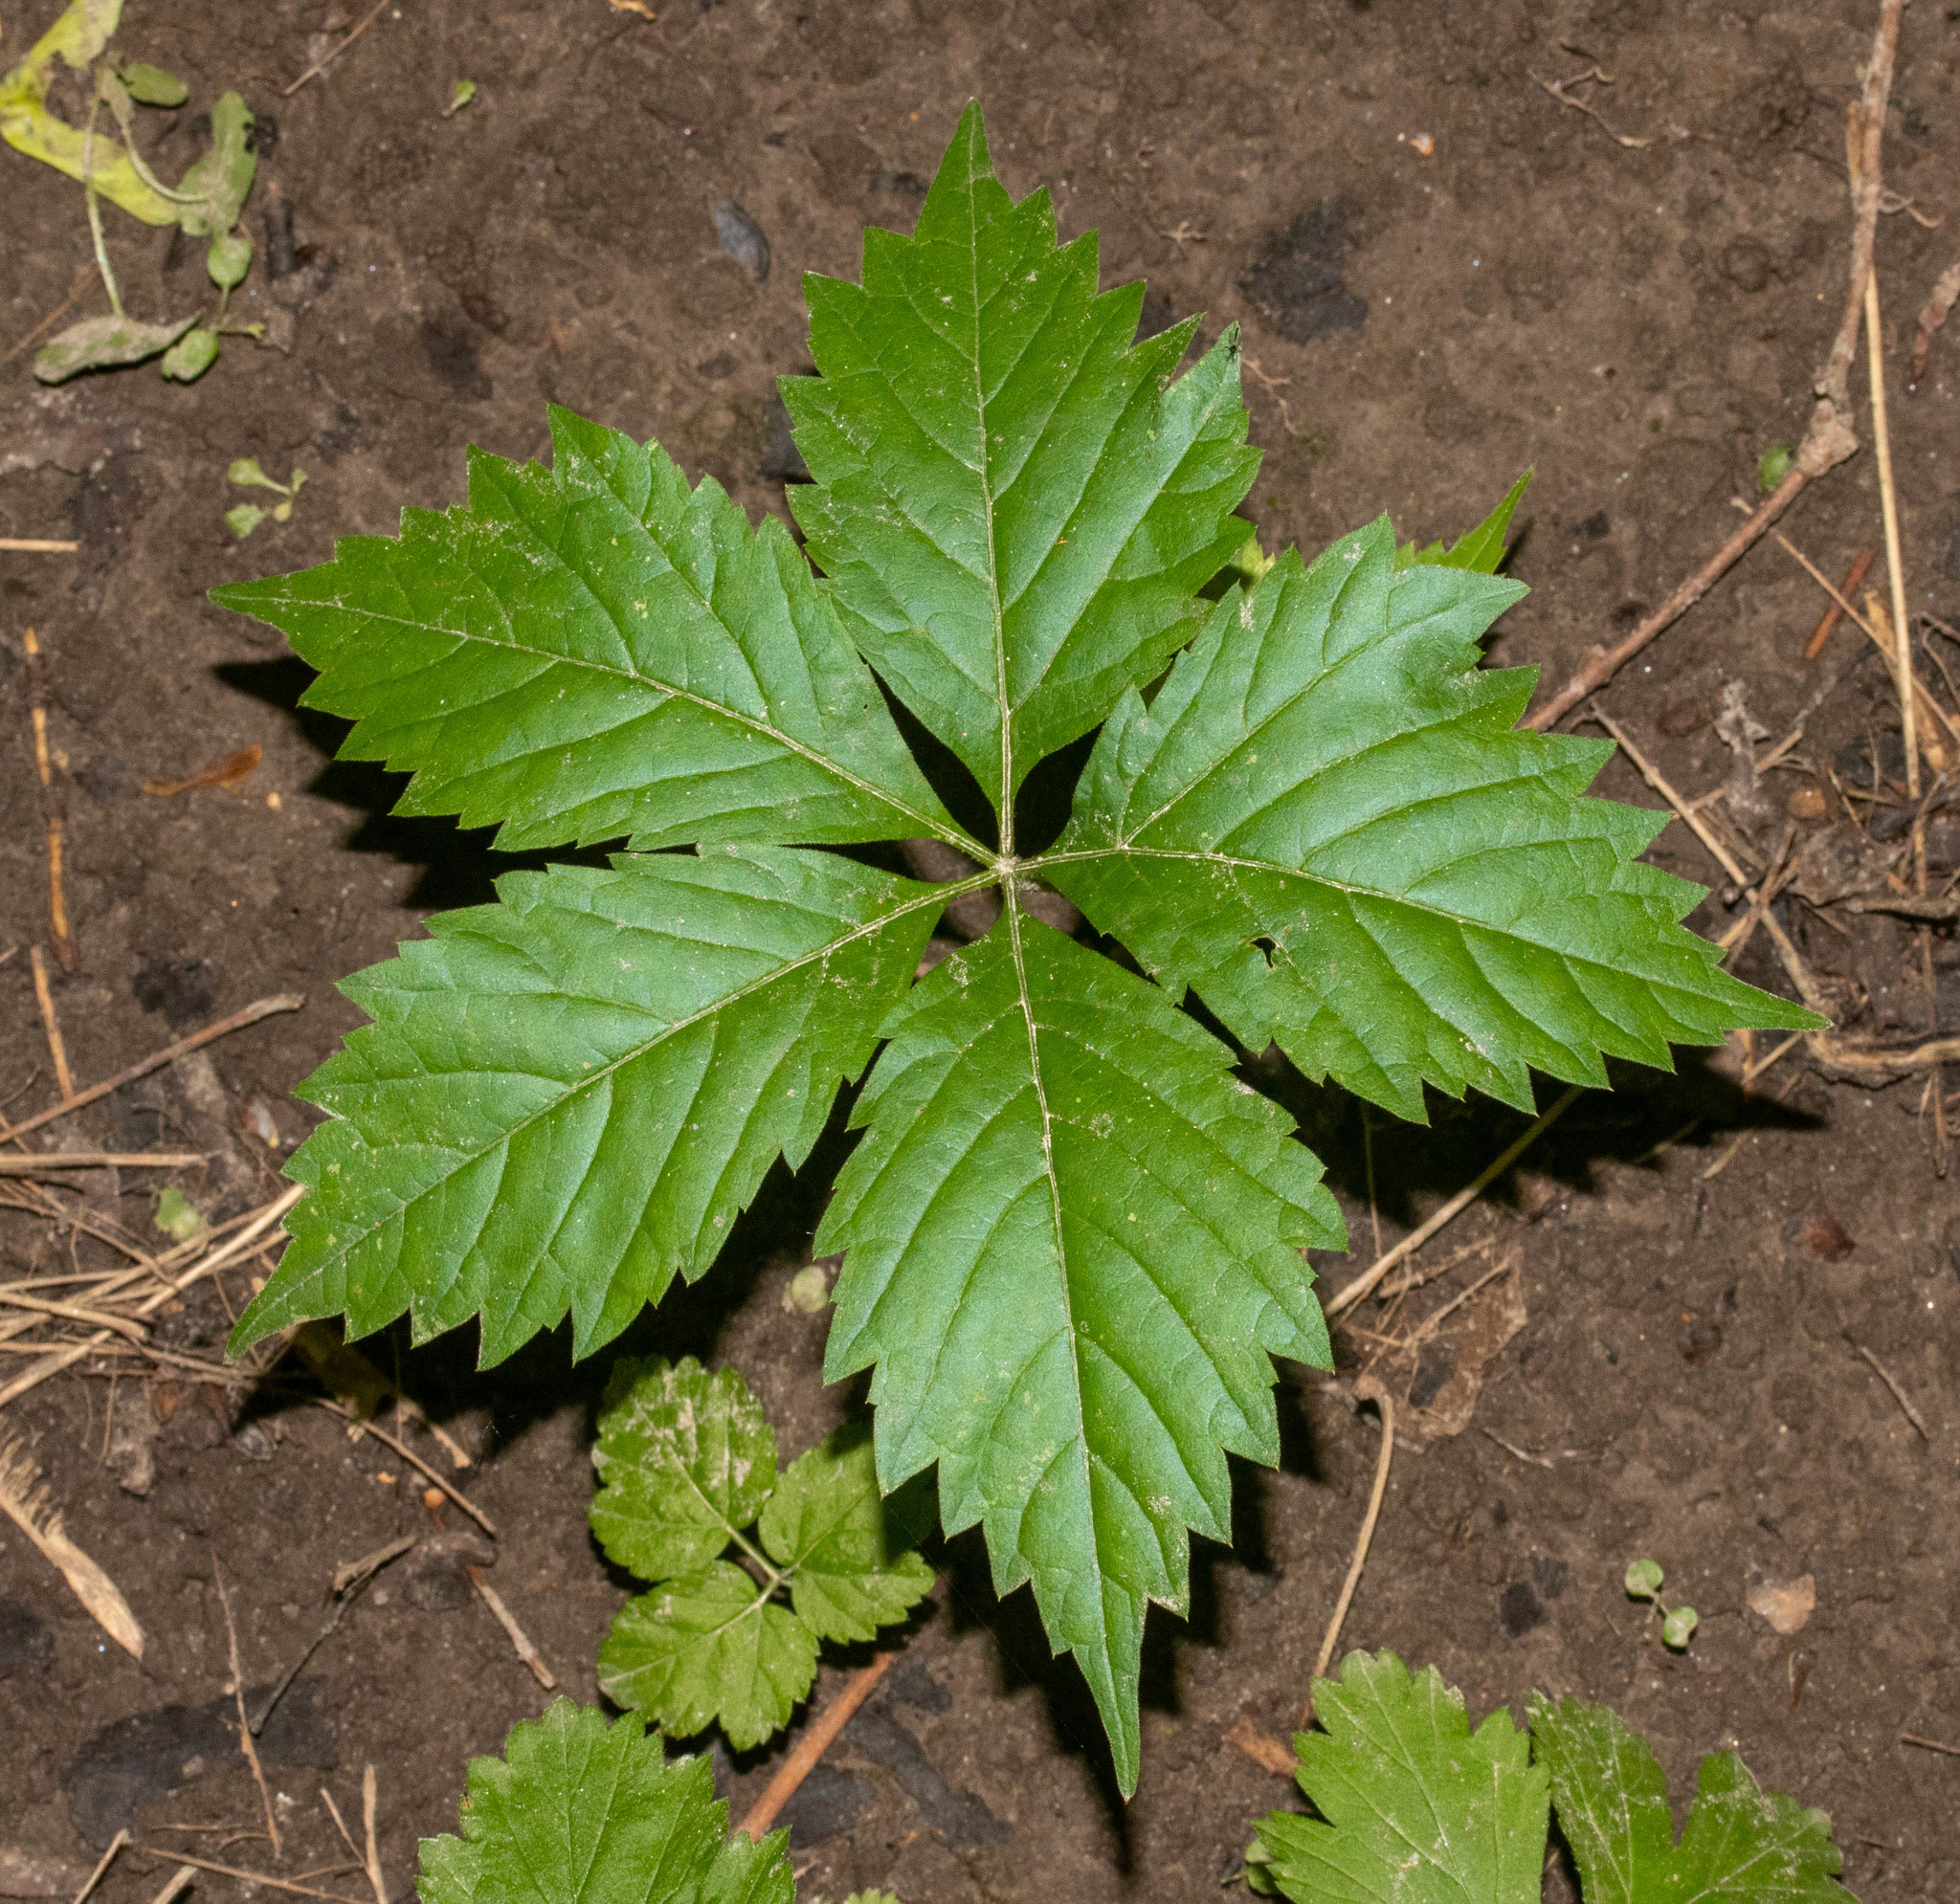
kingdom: Plantae
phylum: Tracheophyta
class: Magnoliopsida
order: Vitales
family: Vitaceae
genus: Parthenocissus
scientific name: Parthenocissus quinquefolia
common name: Virginia-creeper
